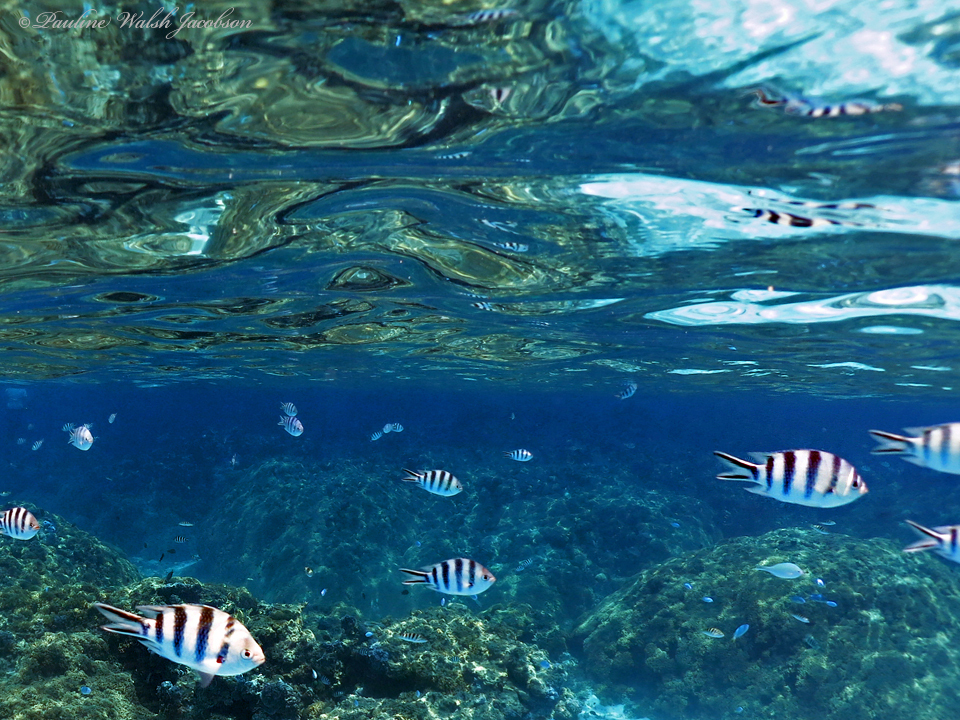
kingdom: Animalia
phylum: Chordata
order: Perciformes
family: Pomacentridae
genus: Abudefduf
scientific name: Abudefduf sexfasciatus
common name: Scissortail sergeant
